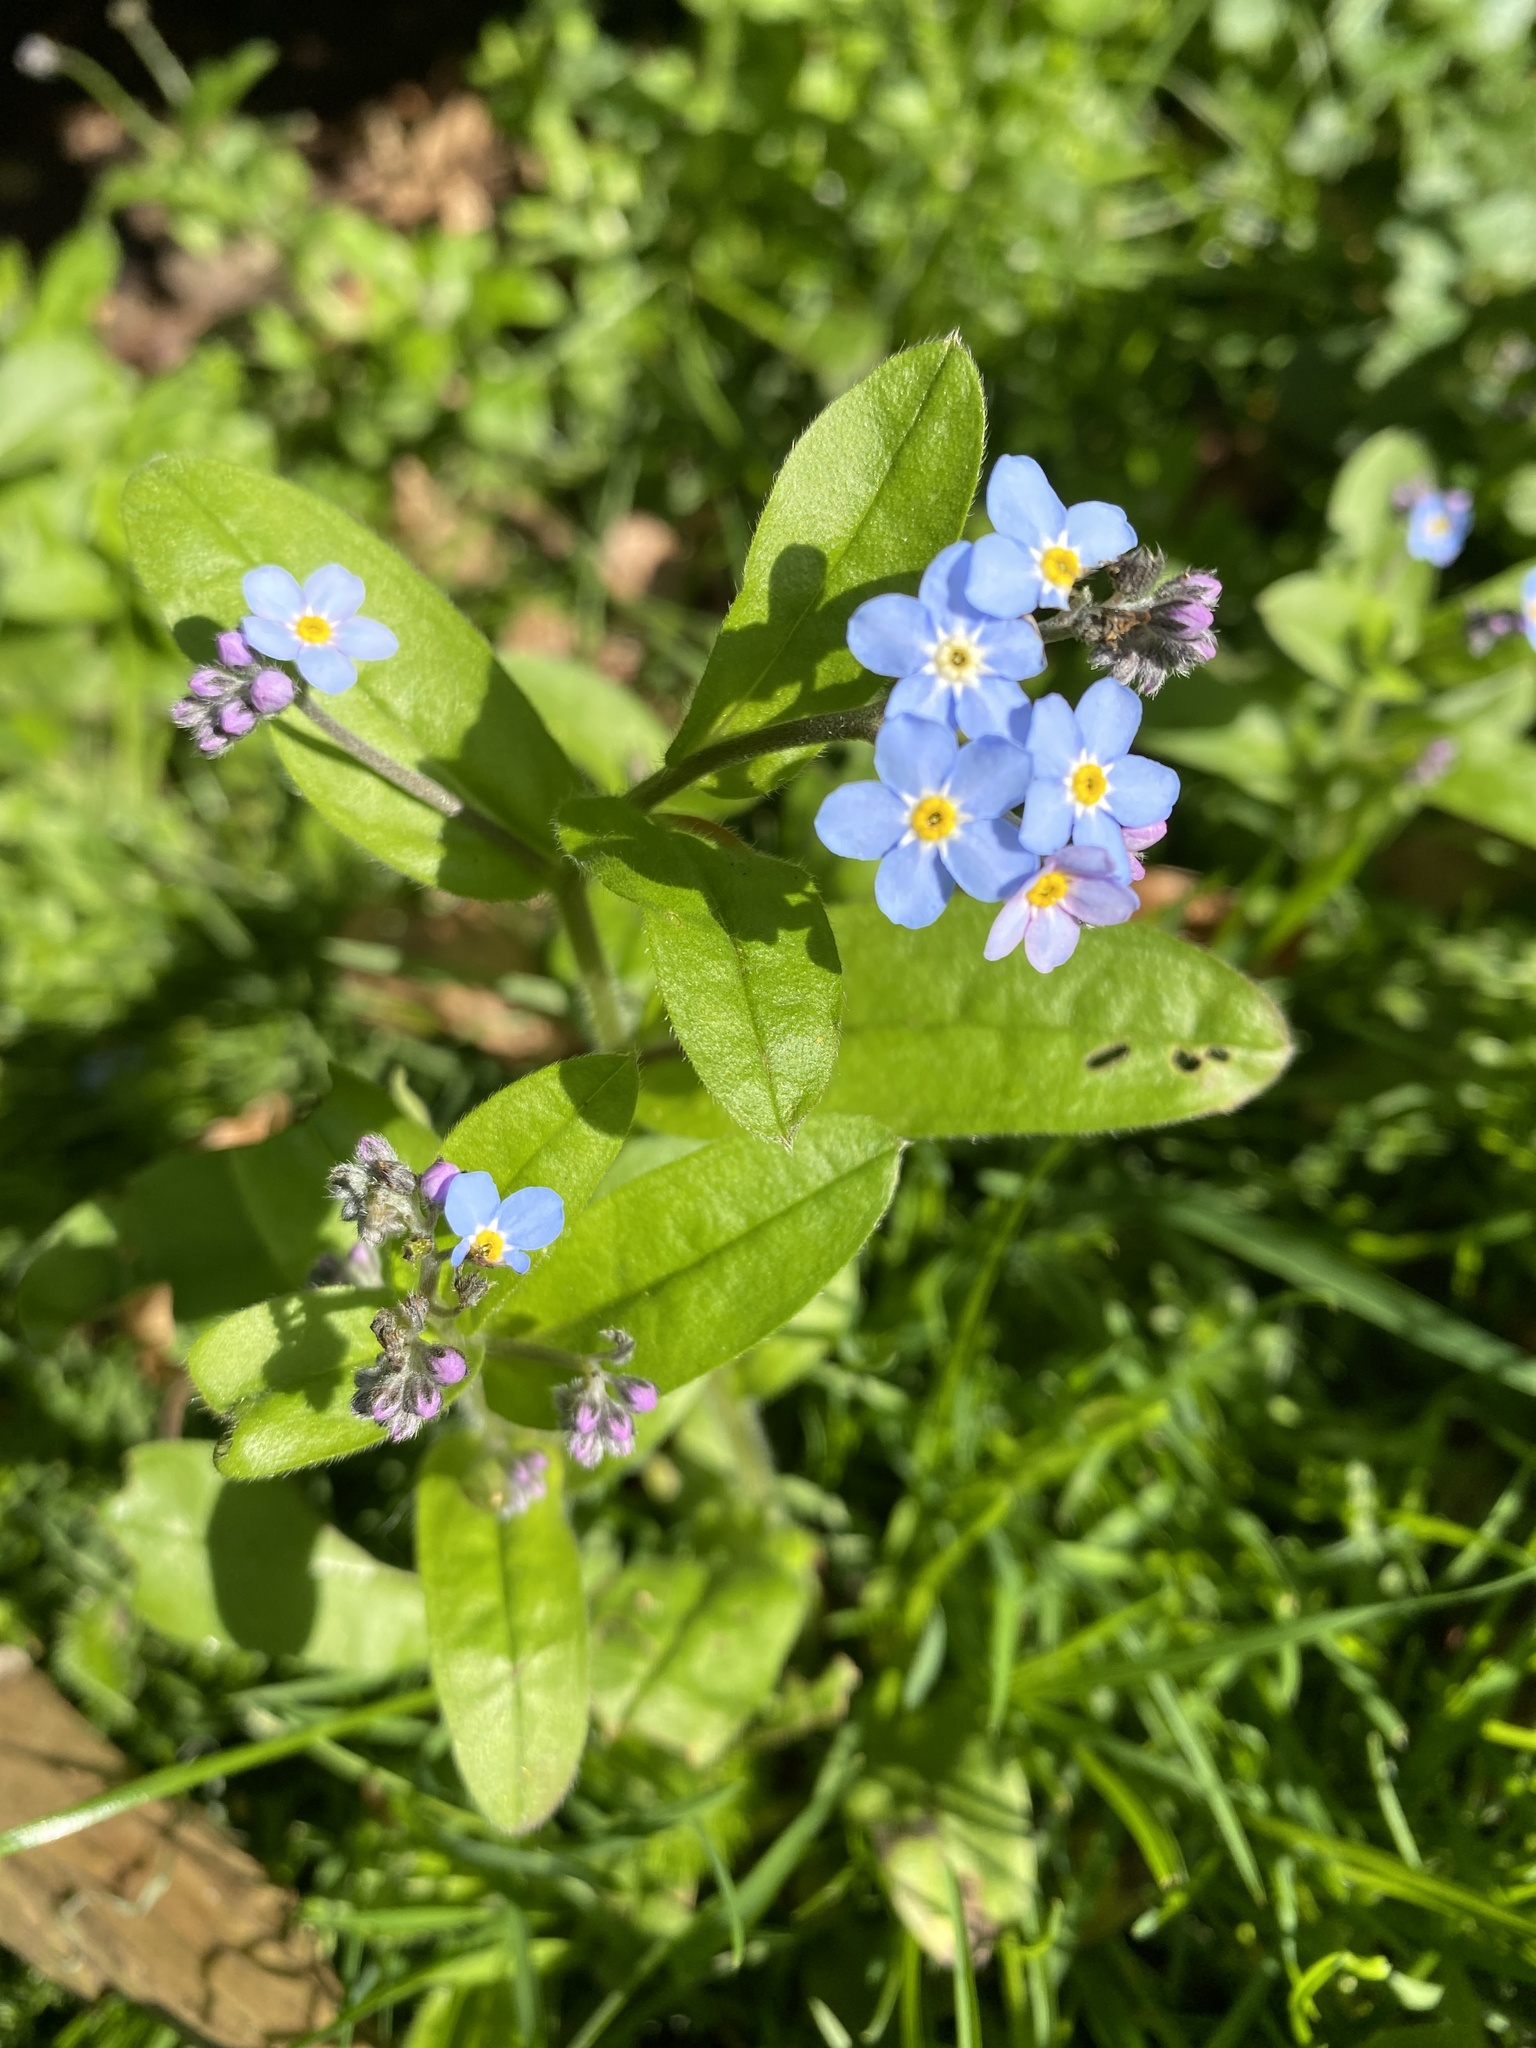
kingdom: Plantae
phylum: Tracheophyta
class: Magnoliopsida
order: Boraginales
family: Boraginaceae
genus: Myosotis
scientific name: Myosotis sylvatica
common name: Wood forget-me-not
